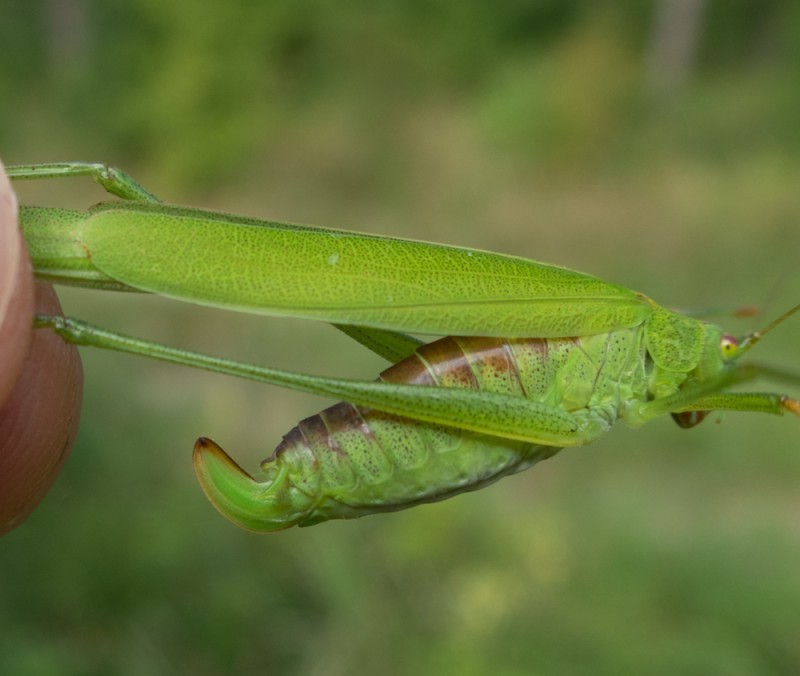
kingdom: Animalia
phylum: Arthropoda
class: Insecta
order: Orthoptera
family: Tettigoniidae
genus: Phaneroptera
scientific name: Phaneroptera falcata
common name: Sickle-bearing bush-cricket
